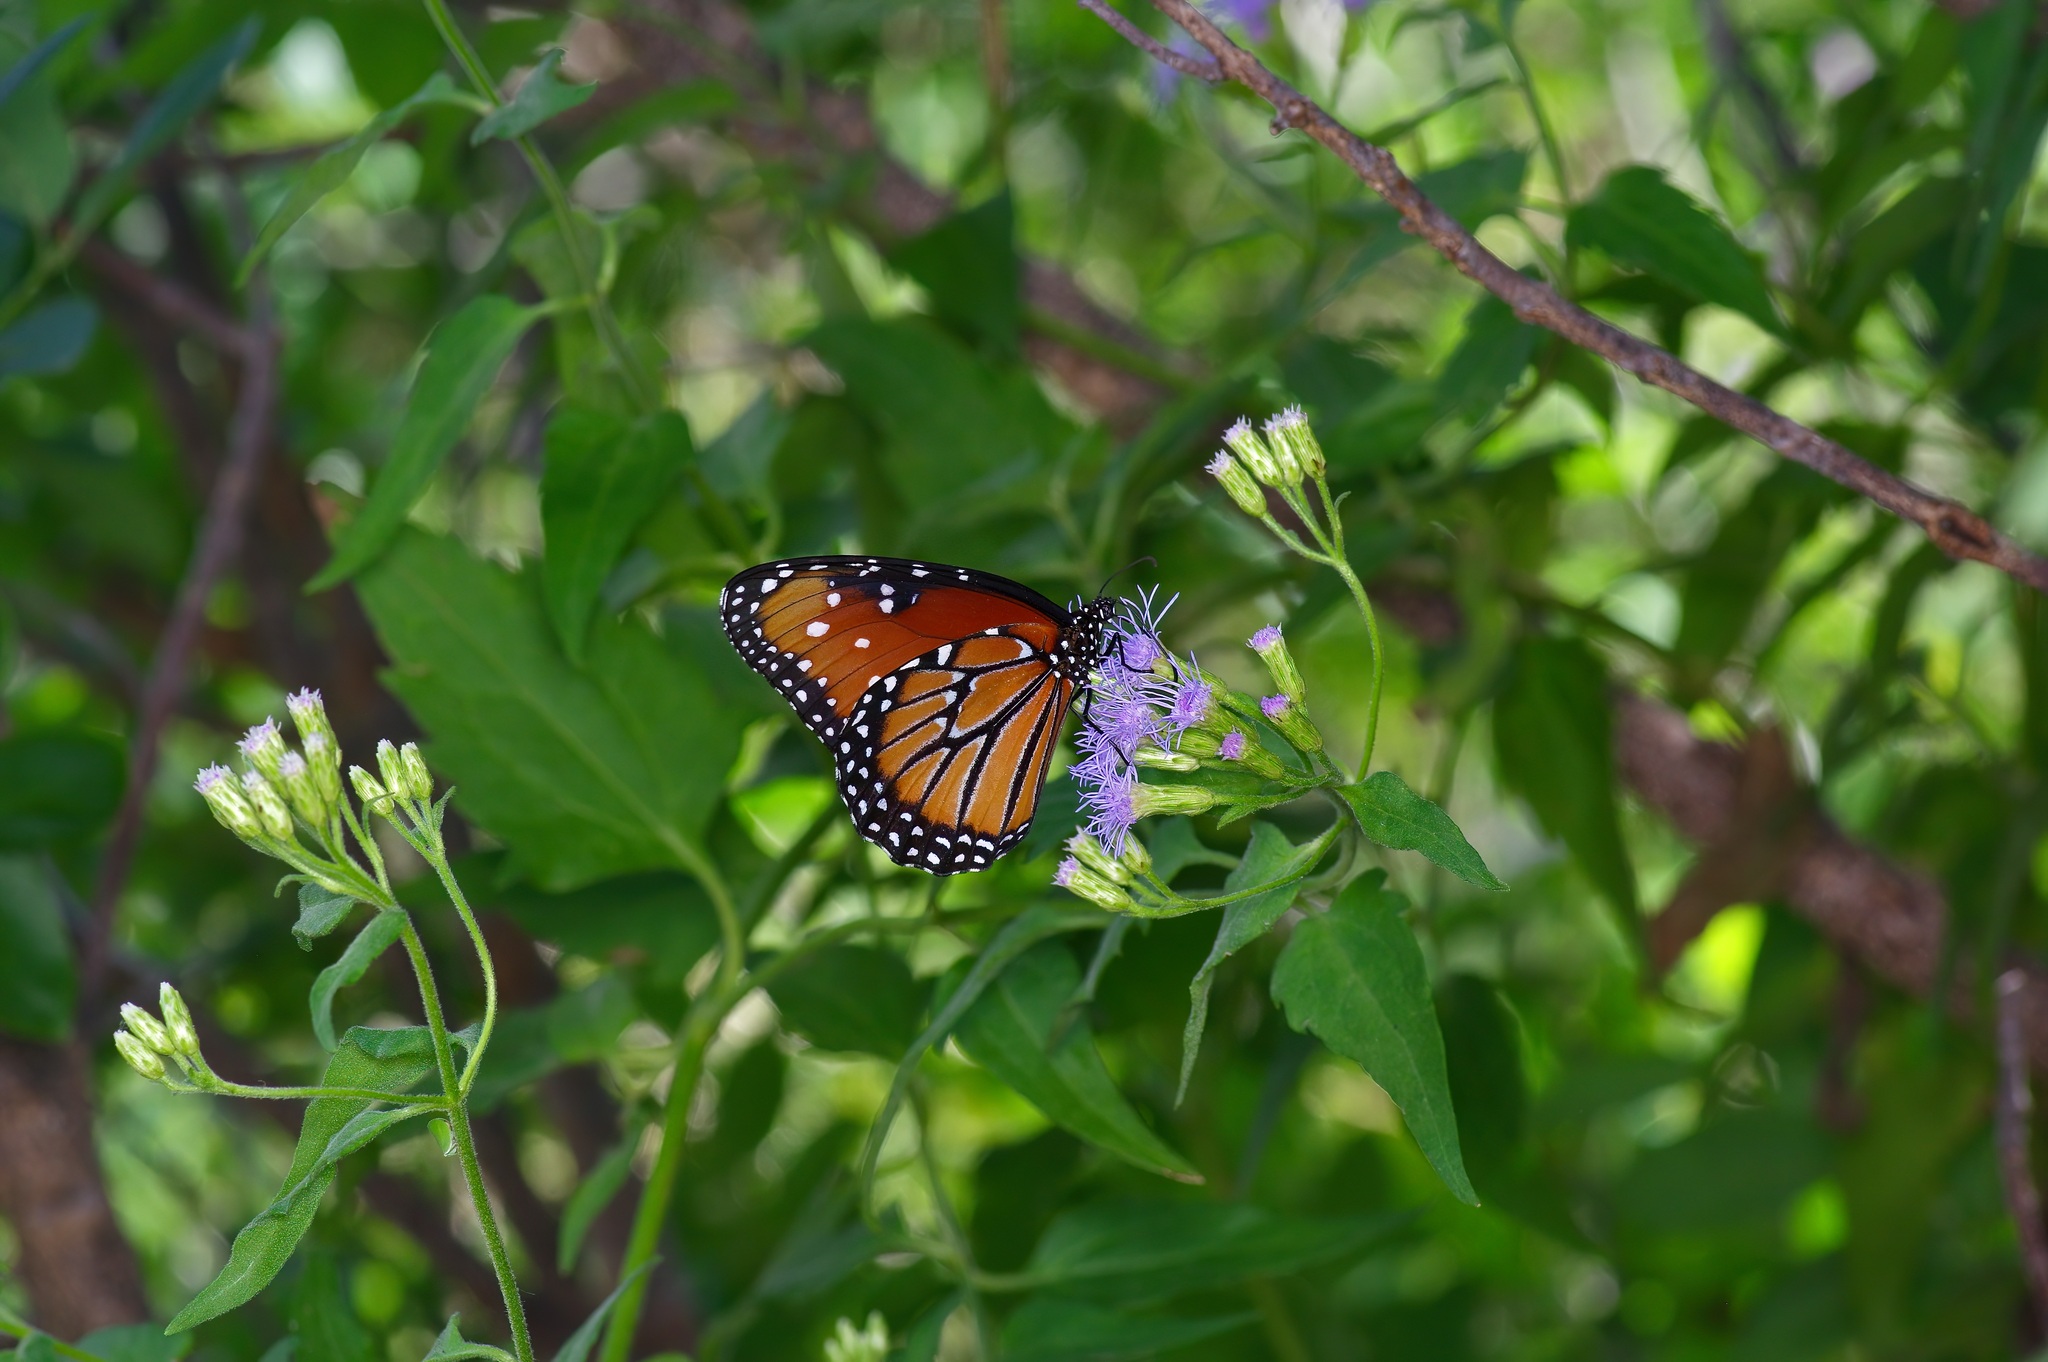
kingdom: Animalia
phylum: Arthropoda
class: Insecta
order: Lepidoptera
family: Nymphalidae
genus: Danaus
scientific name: Danaus gilippus
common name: Queen
